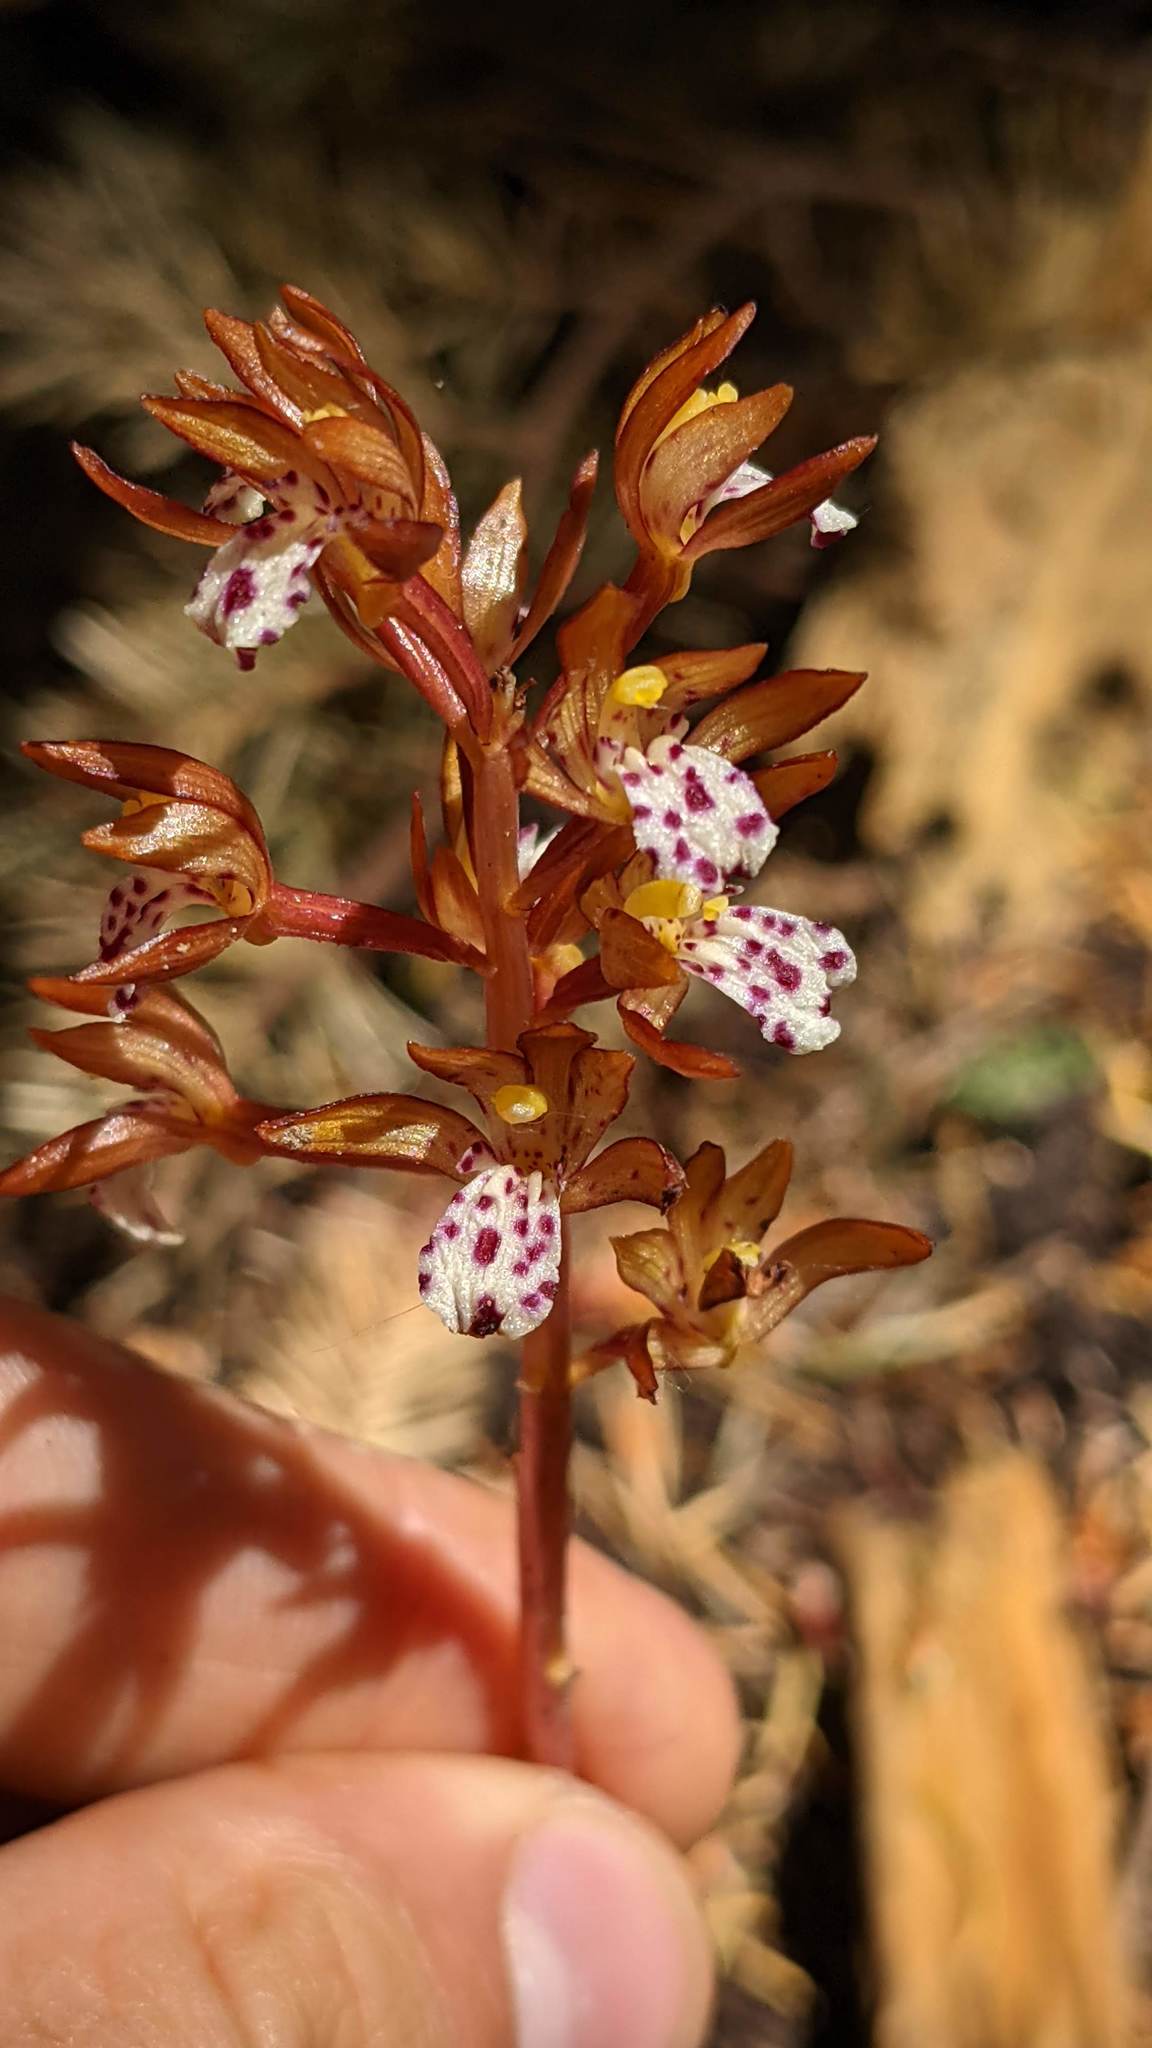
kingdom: Plantae
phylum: Tracheophyta
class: Liliopsida
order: Asparagales
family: Orchidaceae
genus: Corallorhiza
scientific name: Corallorhiza maculata
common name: Spotted coralroot
